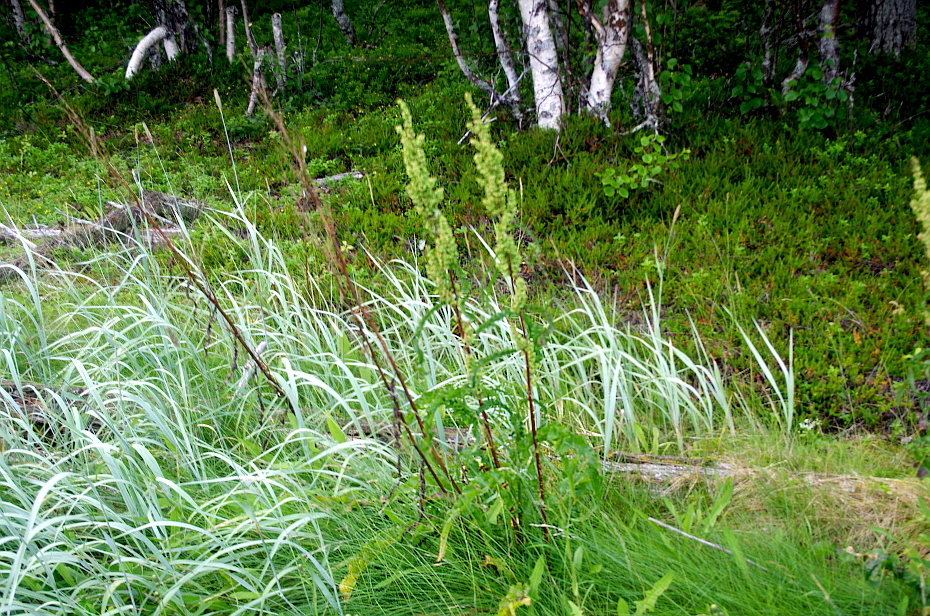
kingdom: Plantae
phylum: Tracheophyta
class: Magnoliopsida
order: Caryophyllales
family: Polygonaceae
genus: Rumex
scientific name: Rumex pseudonatronatus
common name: Field dock
